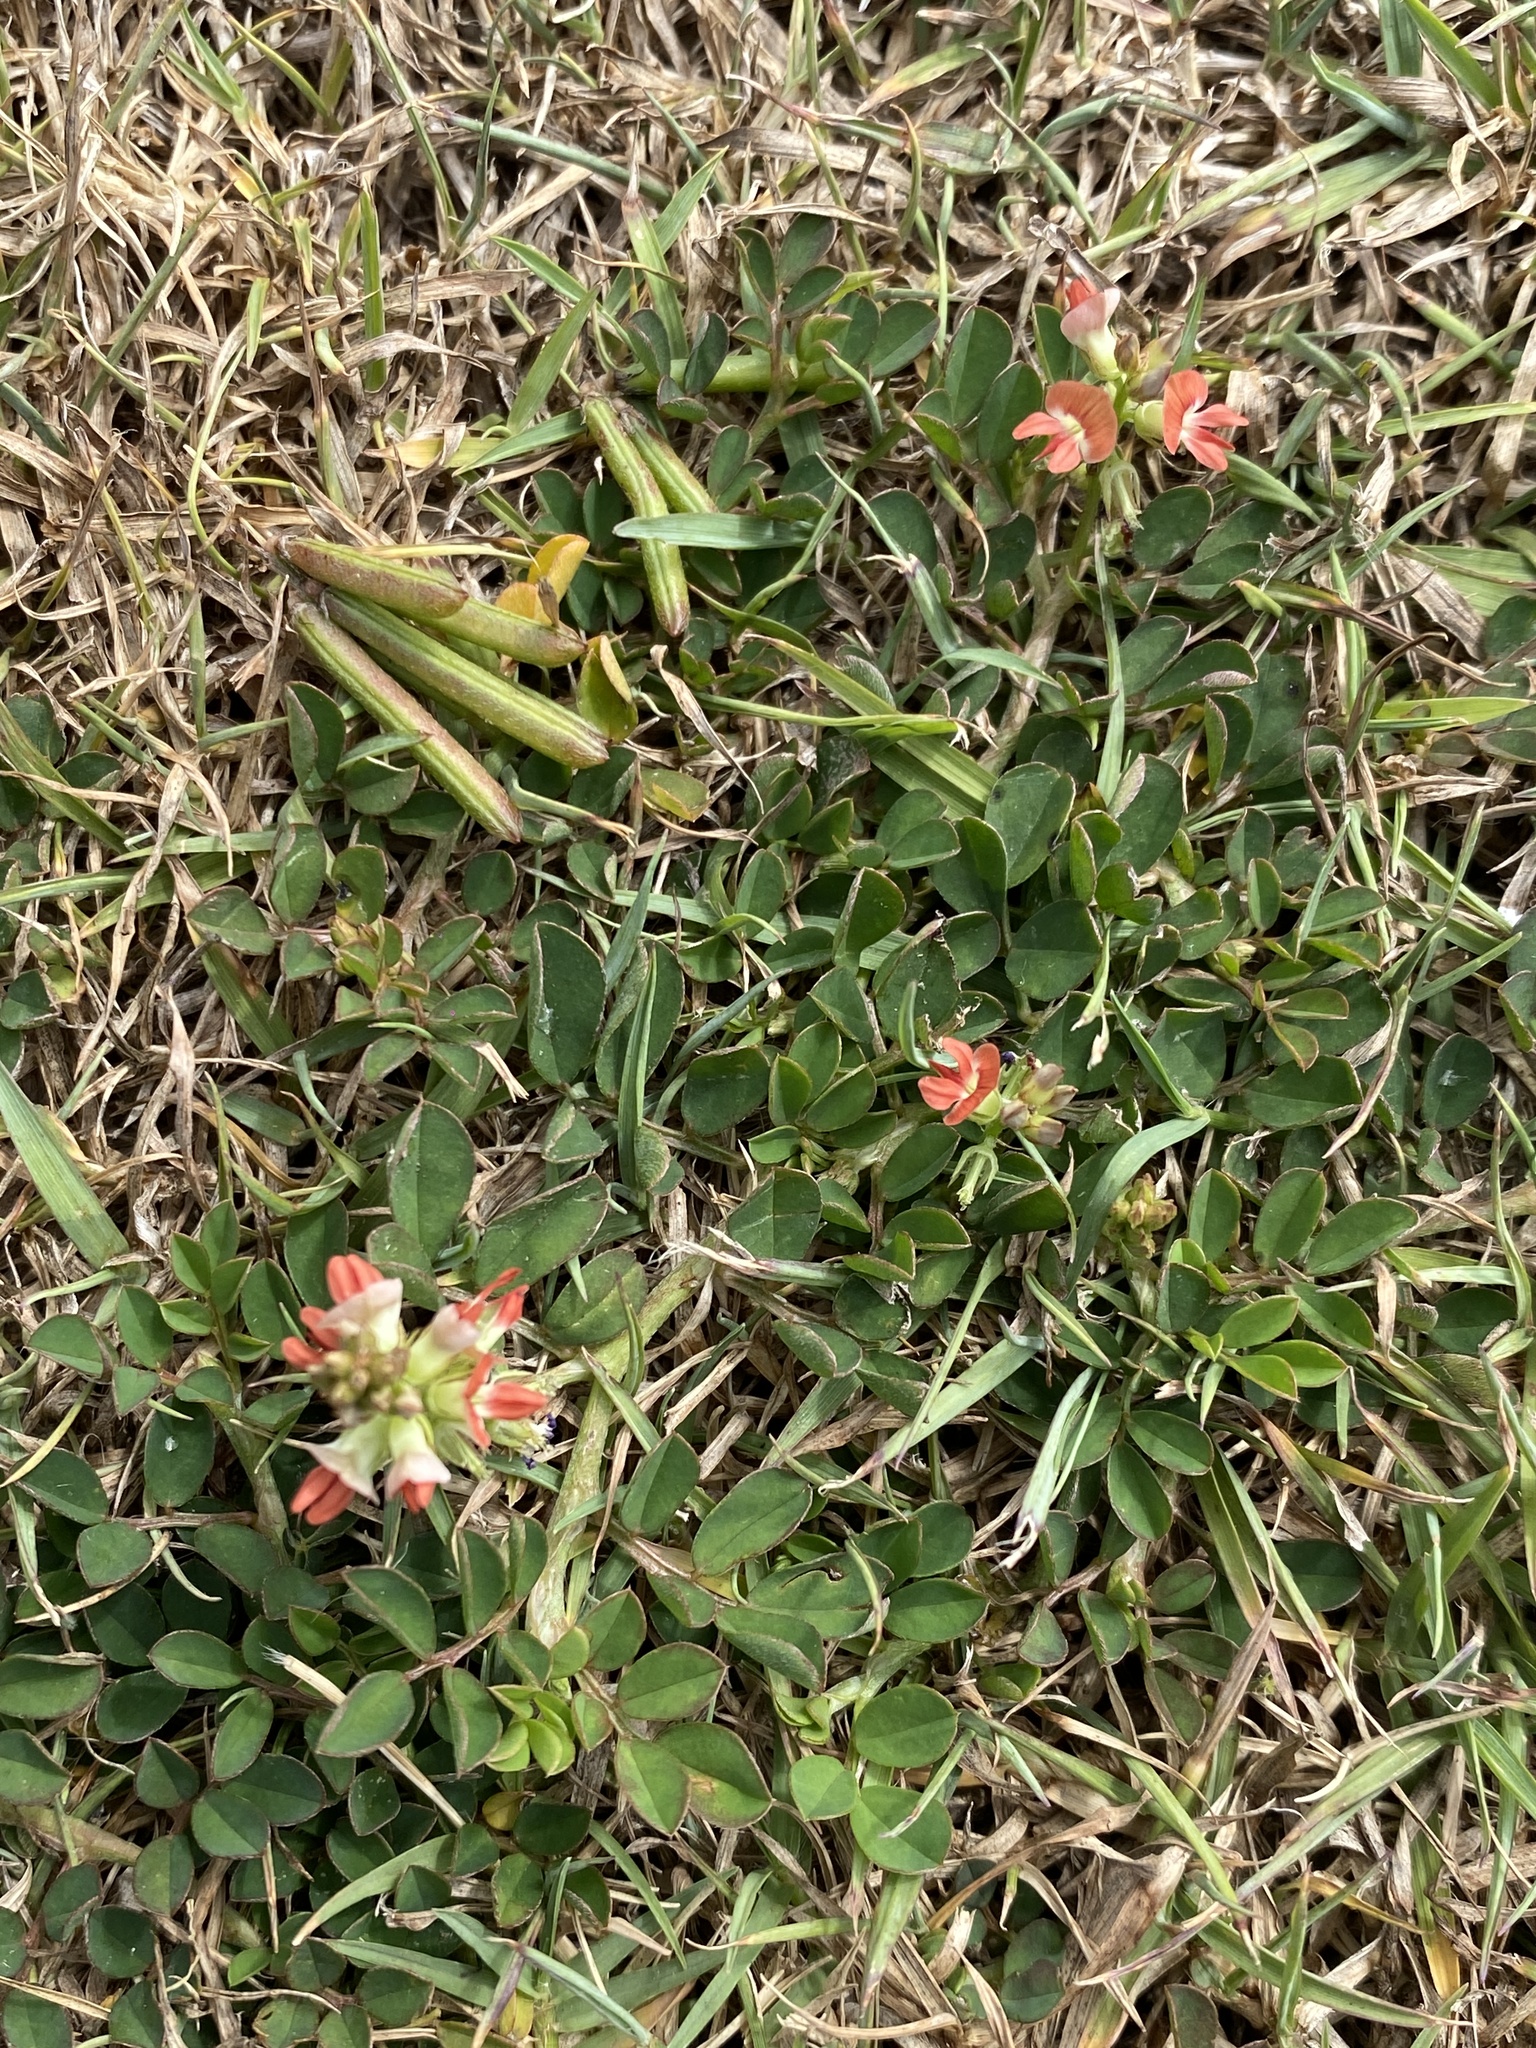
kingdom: Plantae
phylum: Tracheophyta
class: Magnoliopsida
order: Fabales
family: Fabaceae
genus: Indigofera
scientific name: Indigofera spicata
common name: Creeping indigo
